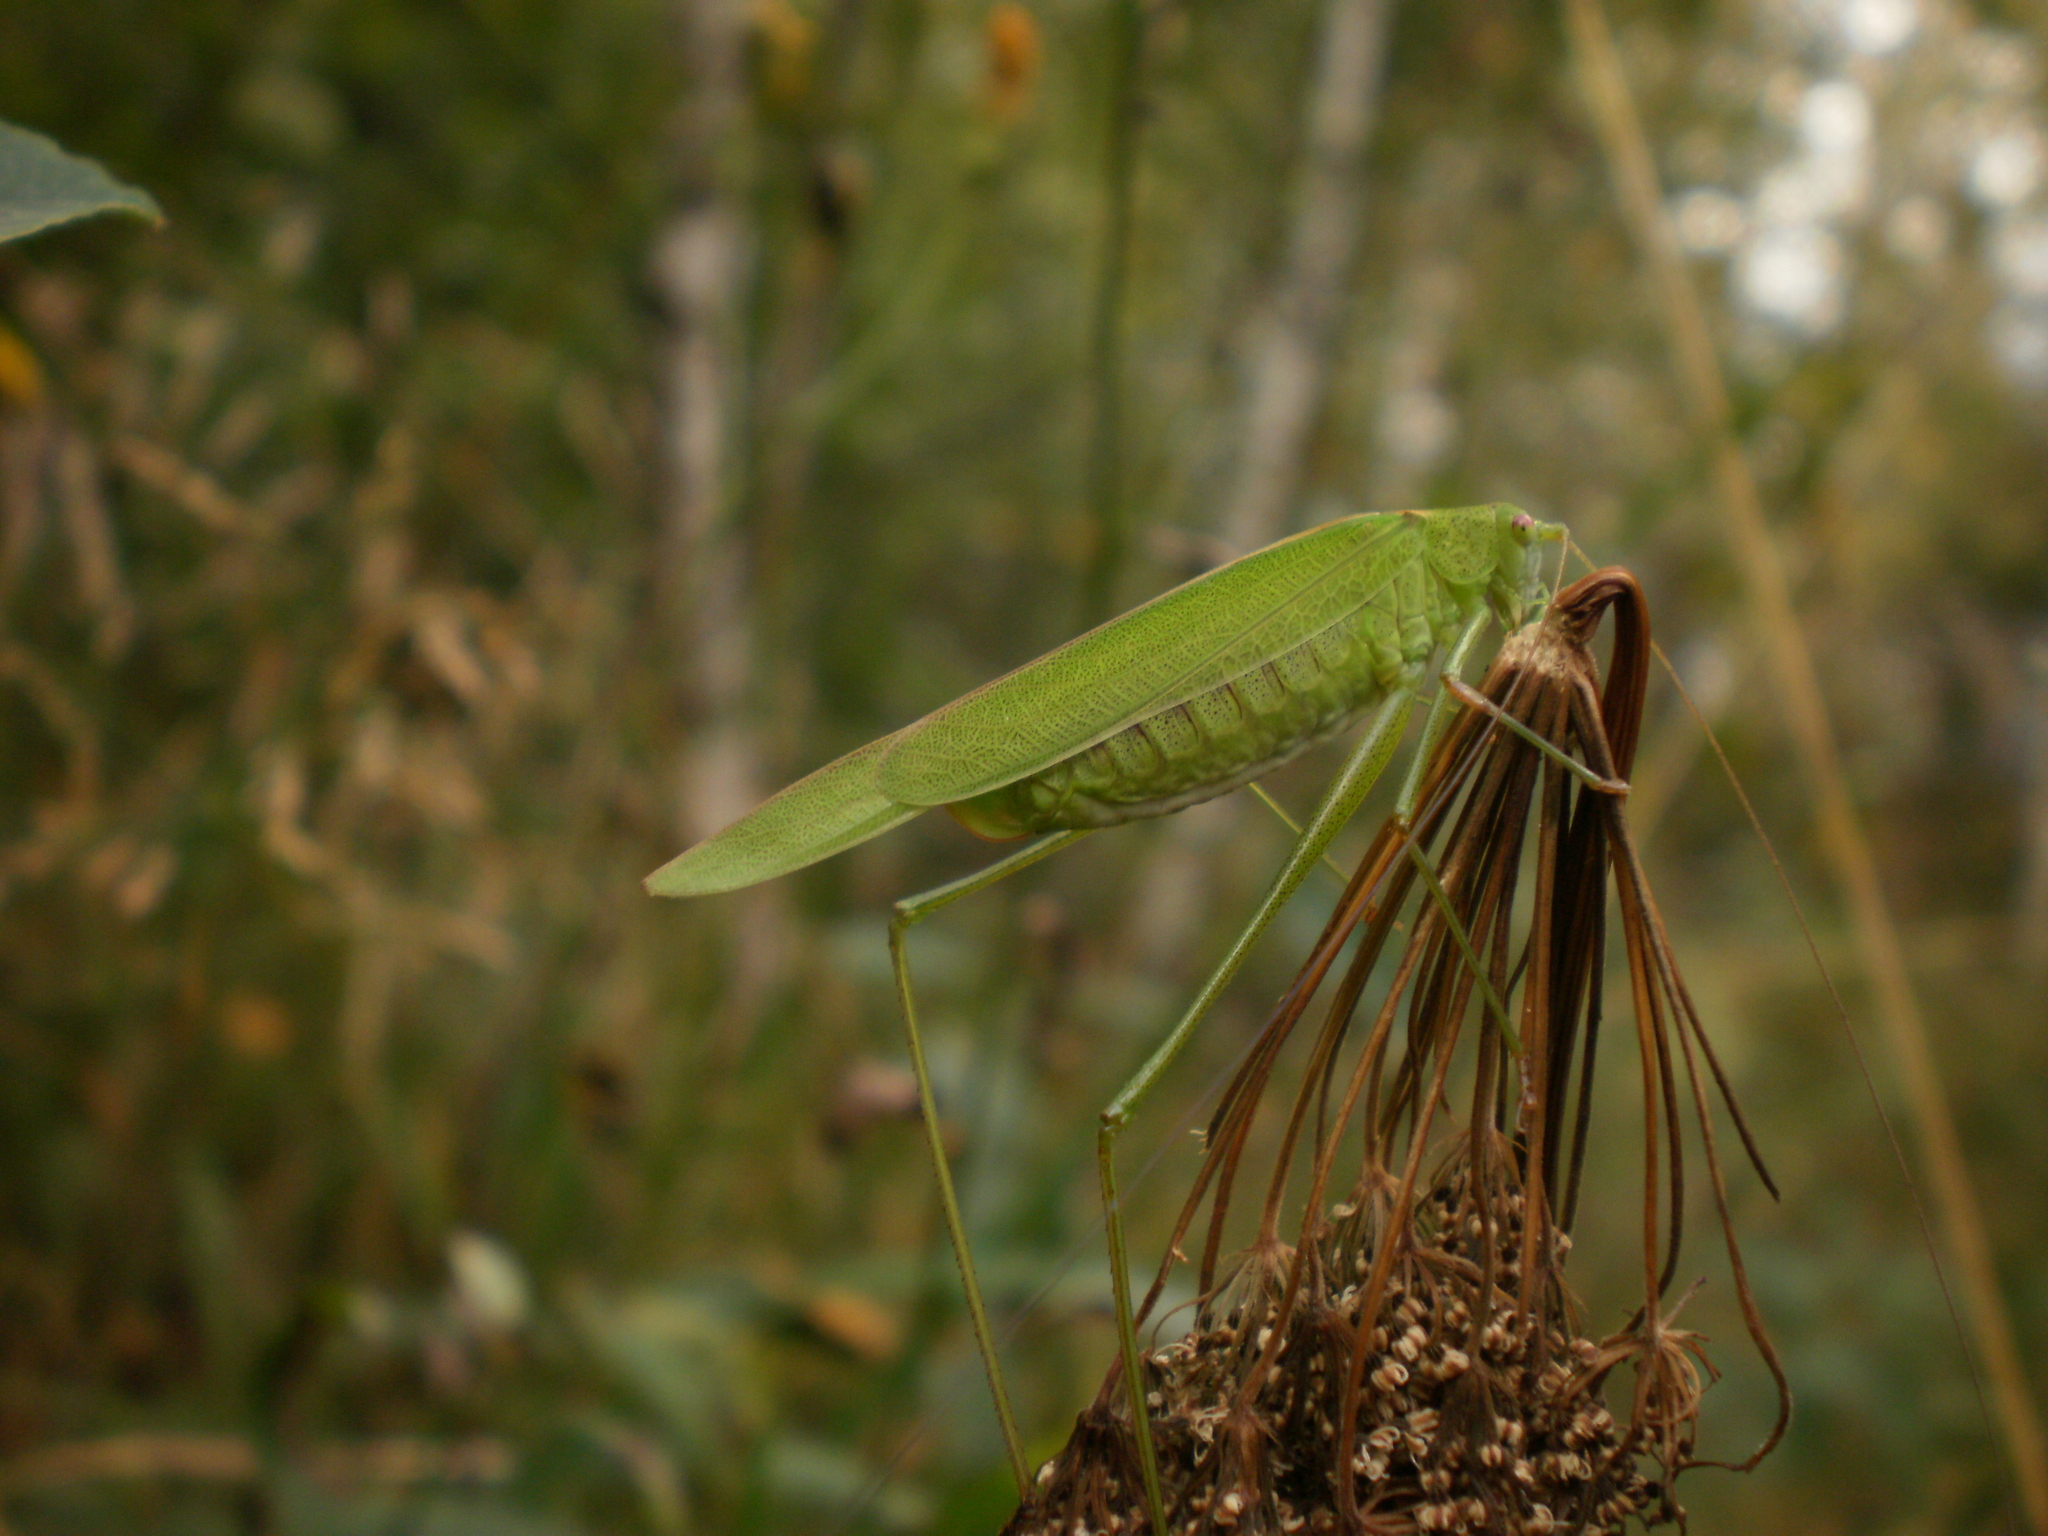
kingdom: Animalia
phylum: Arthropoda
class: Insecta
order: Orthoptera
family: Tettigoniidae
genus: Phaneroptera
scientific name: Phaneroptera falcata
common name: Sickle-bearing bush-cricket
